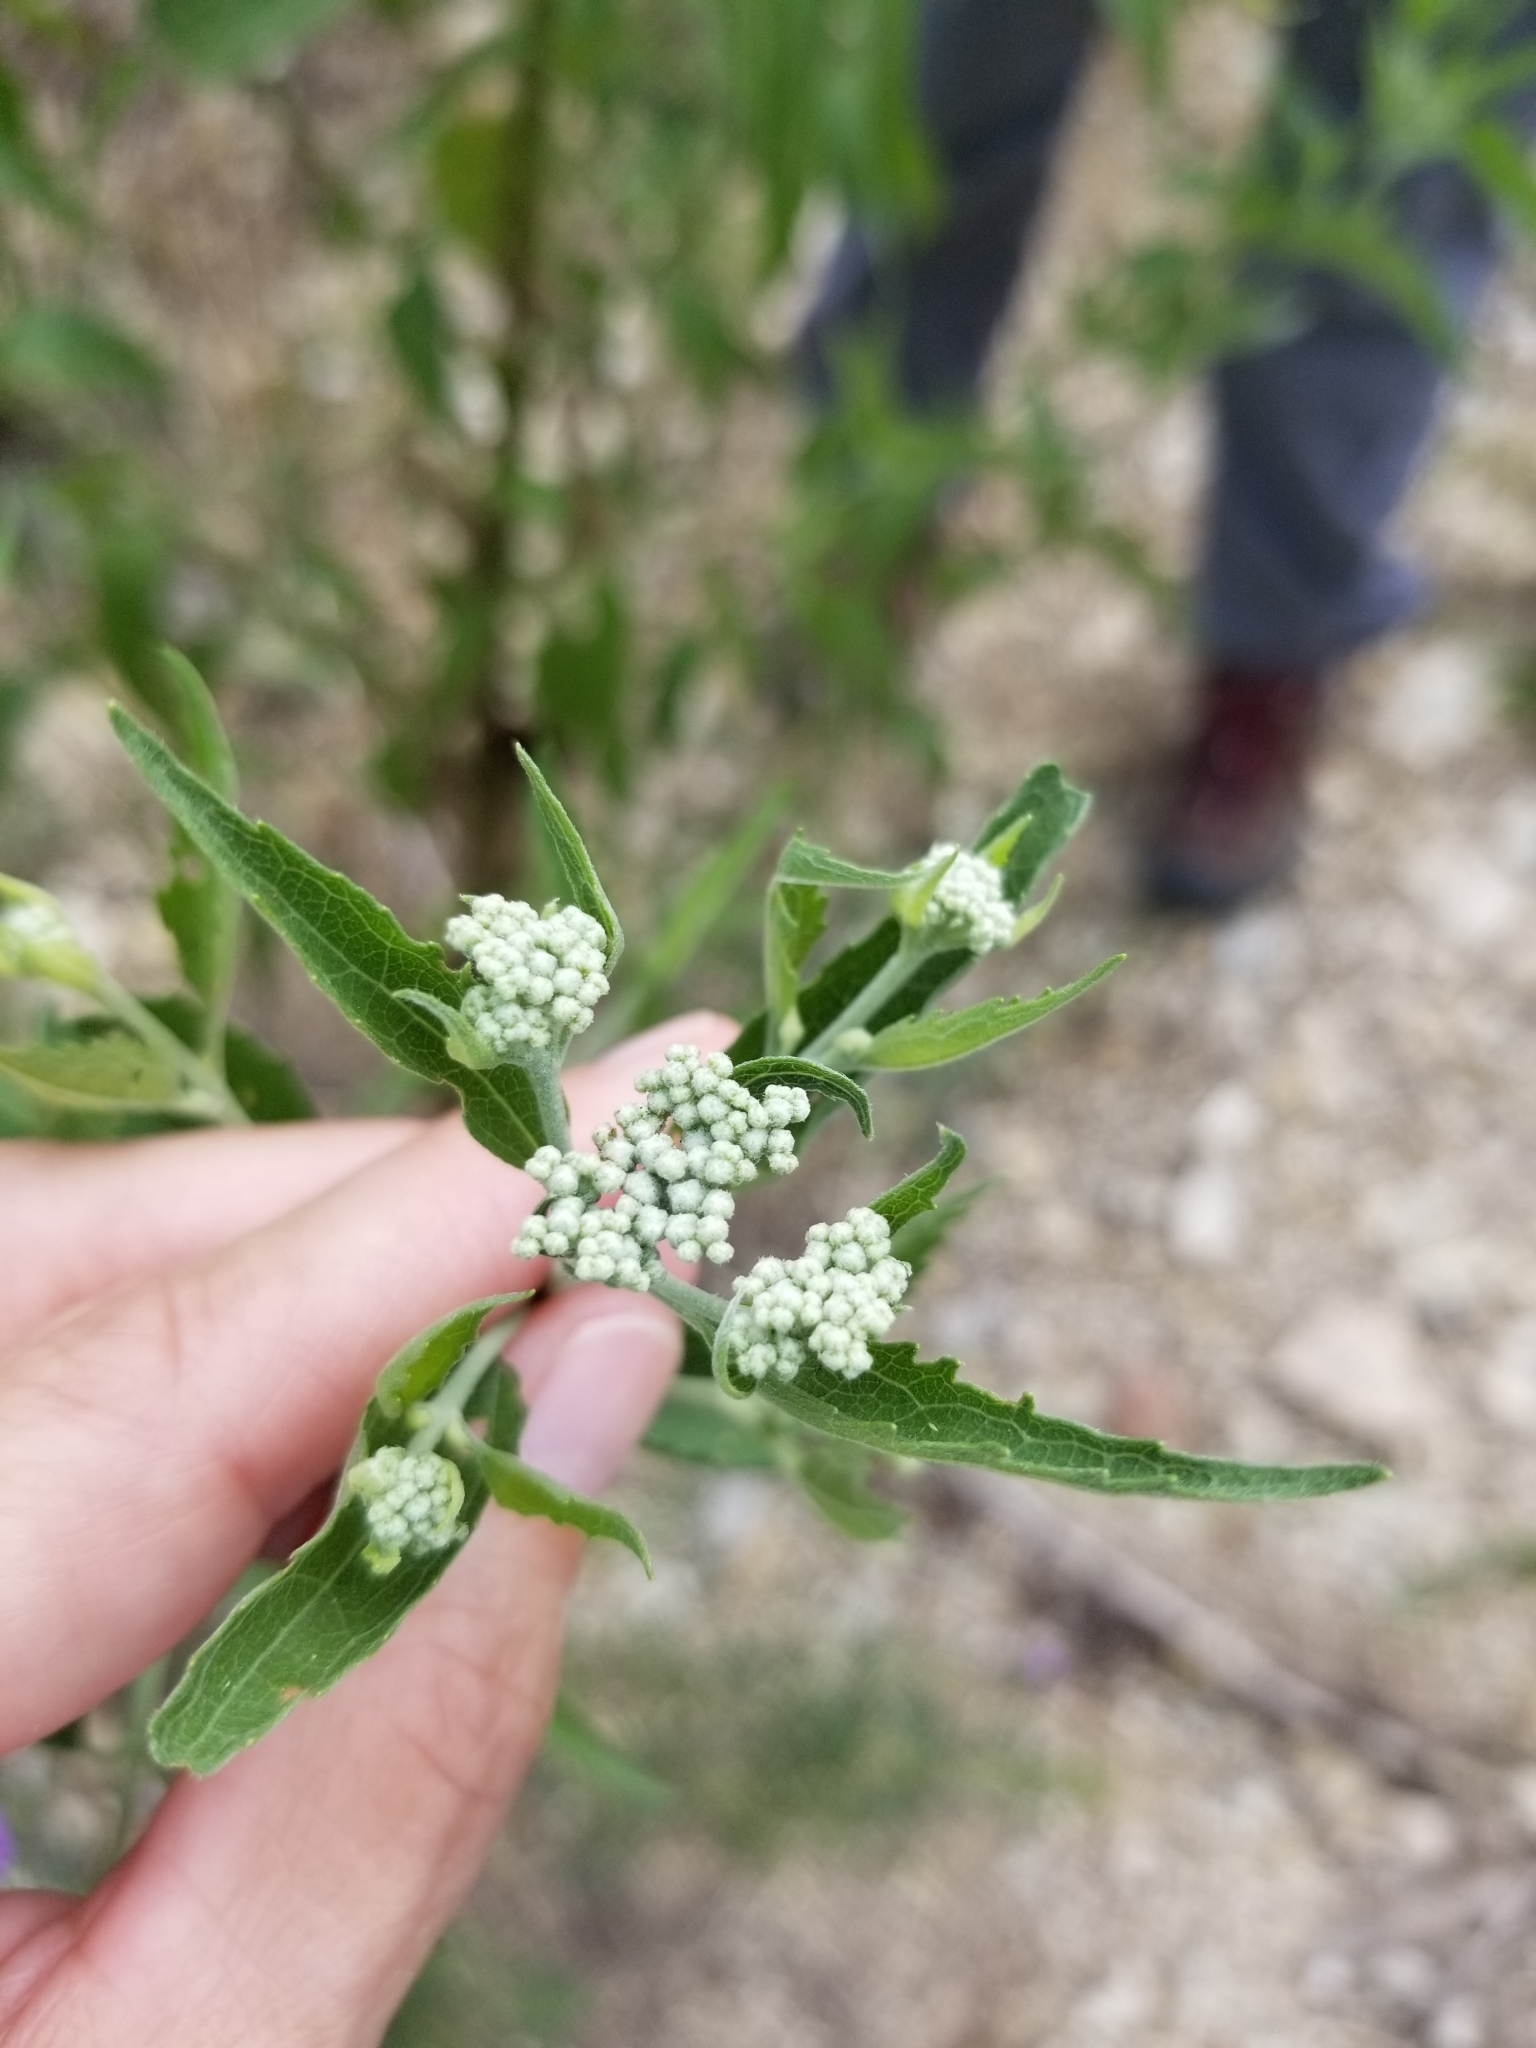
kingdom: Plantae
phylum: Tracheophyta
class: Magnoliopsida
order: Asterales
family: Asteraceae
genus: Eupatorium
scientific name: Eupatorium serotinum
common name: Late boneset
